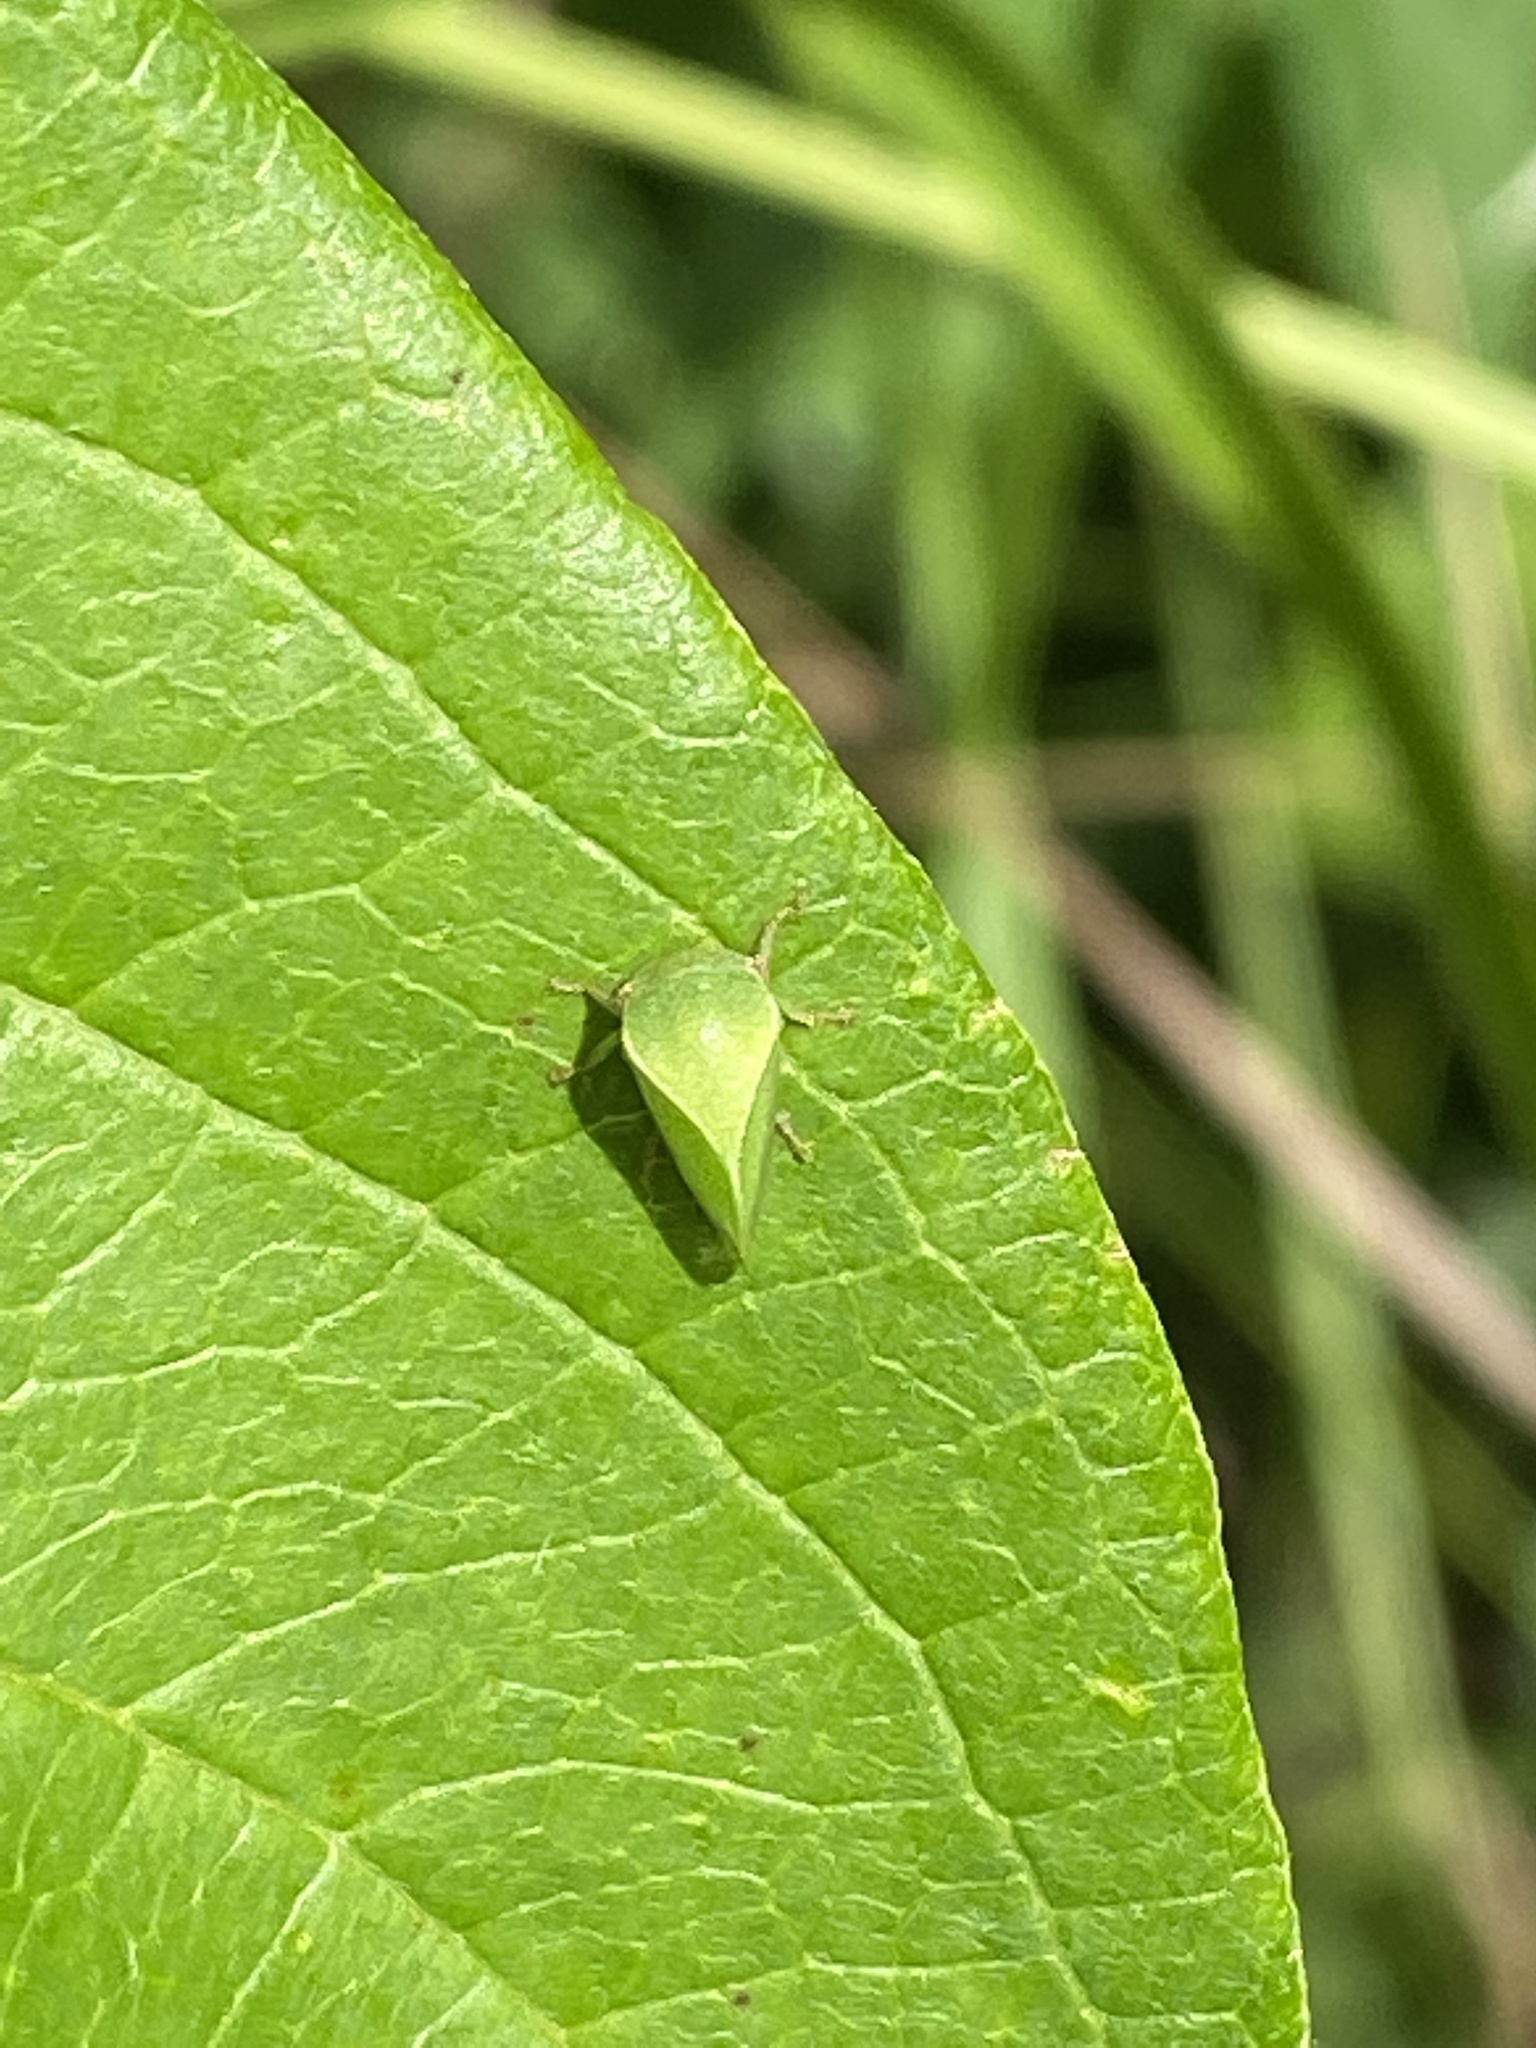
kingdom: Animalia
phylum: Arthropoda
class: Insecta
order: Hemiptera
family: Membracidae
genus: Spissistilus
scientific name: Spissistilus festina
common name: Membracid bug
